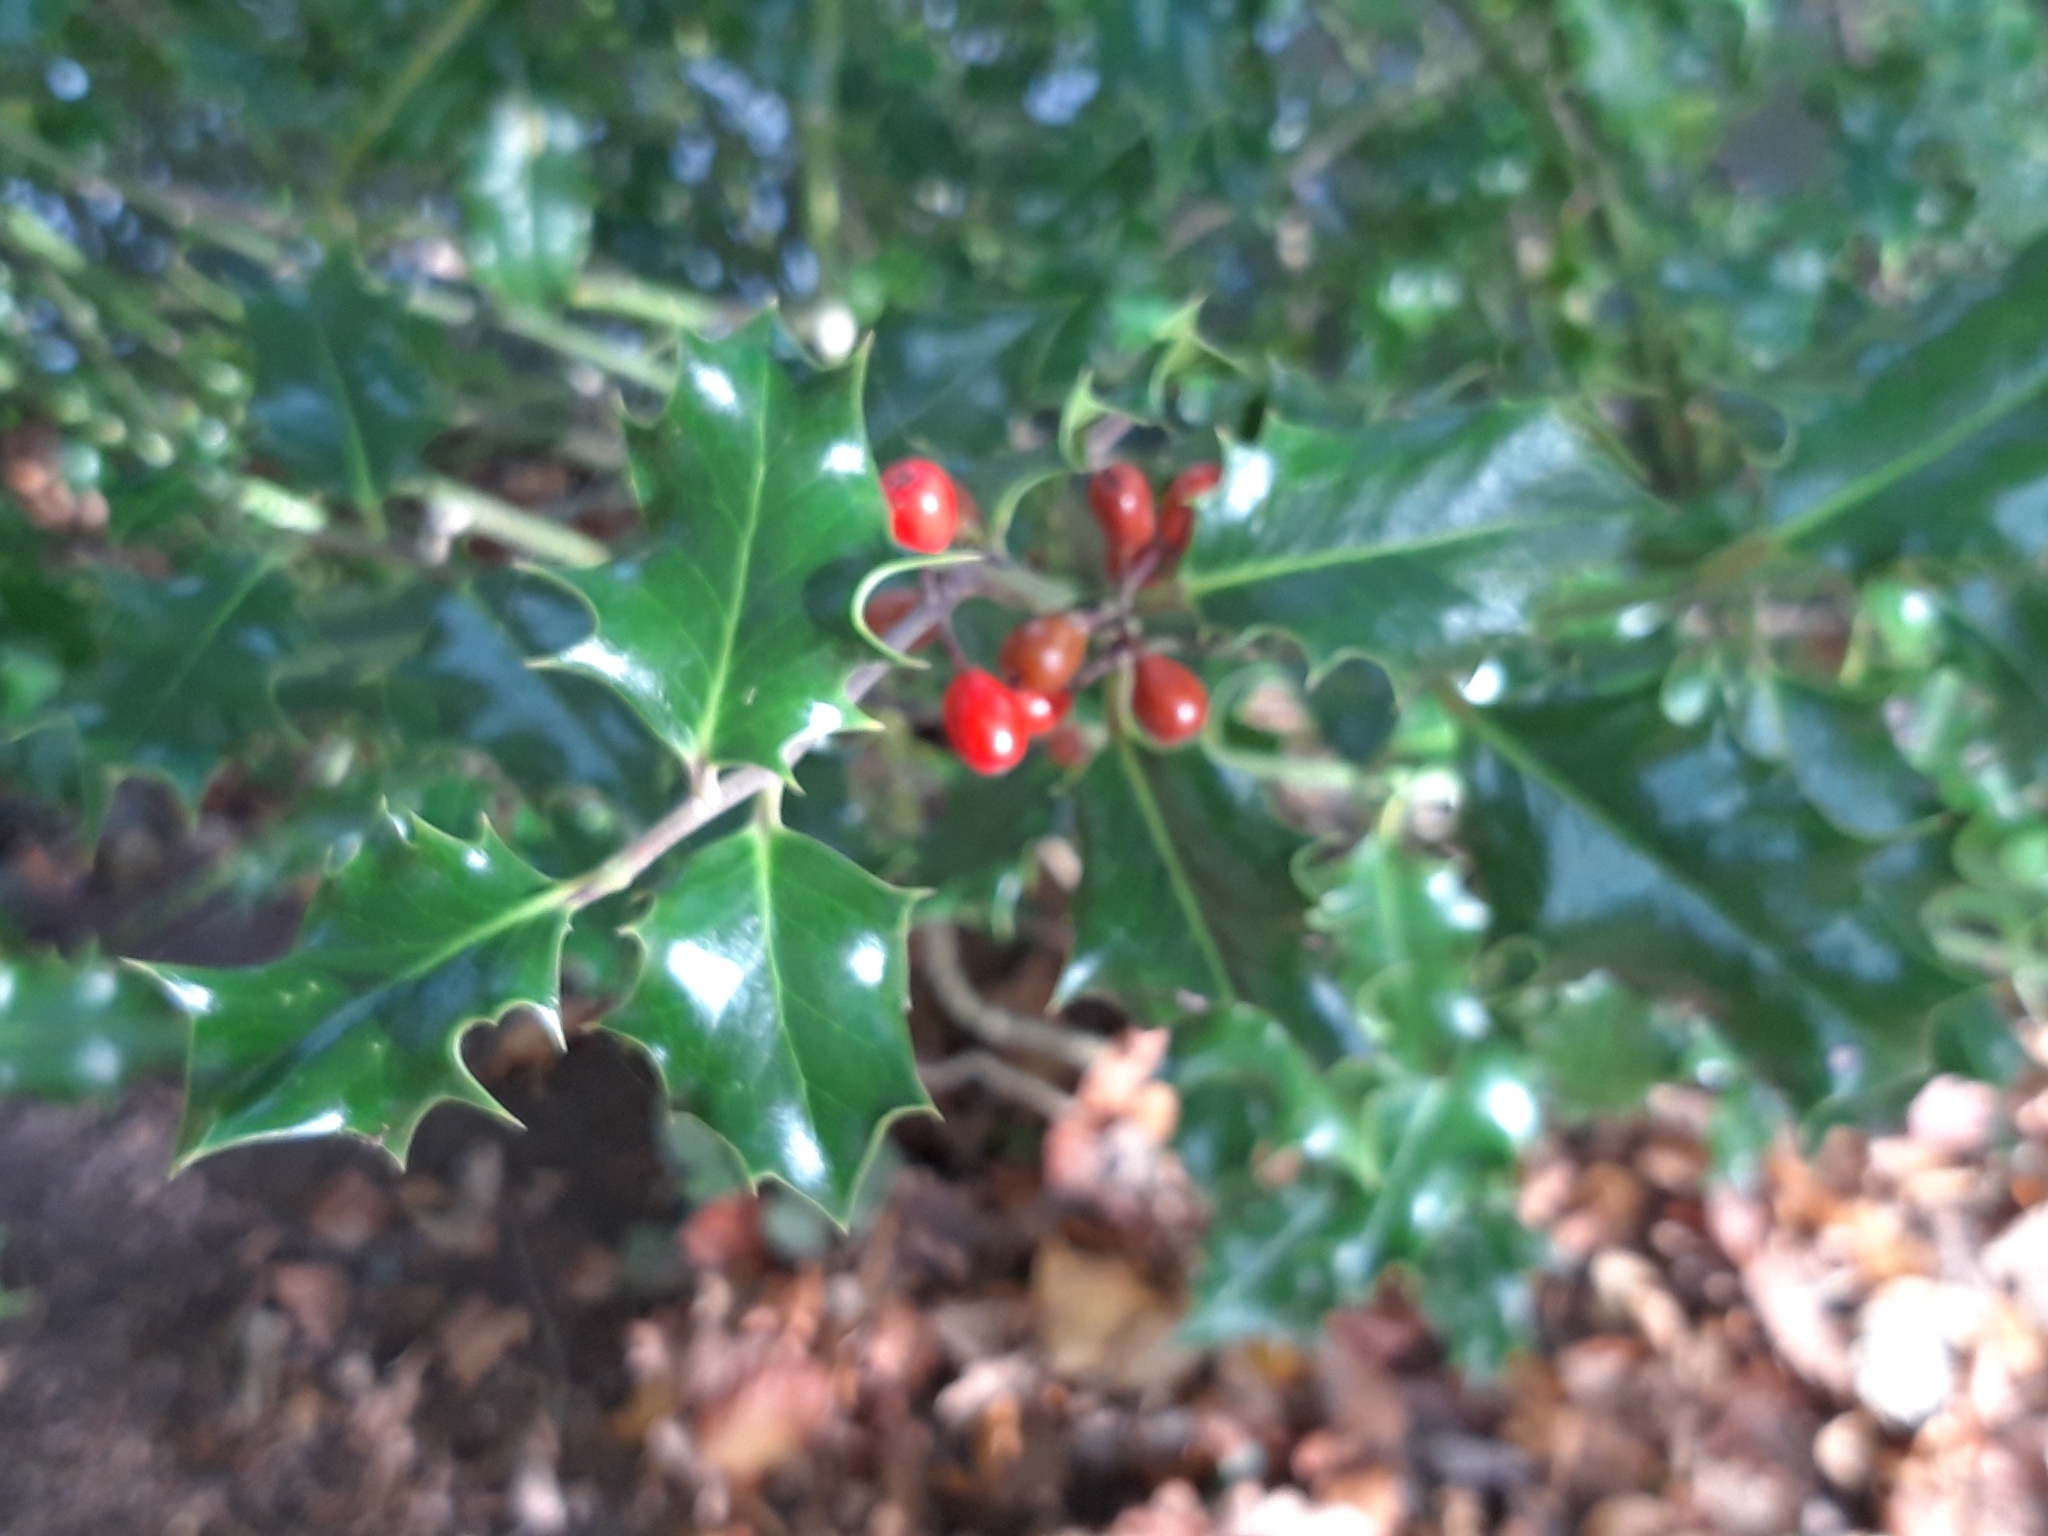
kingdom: Plantae
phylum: Tracheophyta
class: Magnoliopsida
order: Aquifoliales
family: Aquifoliaceae
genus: Ilex
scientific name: Ilex aquifolium
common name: English holly
